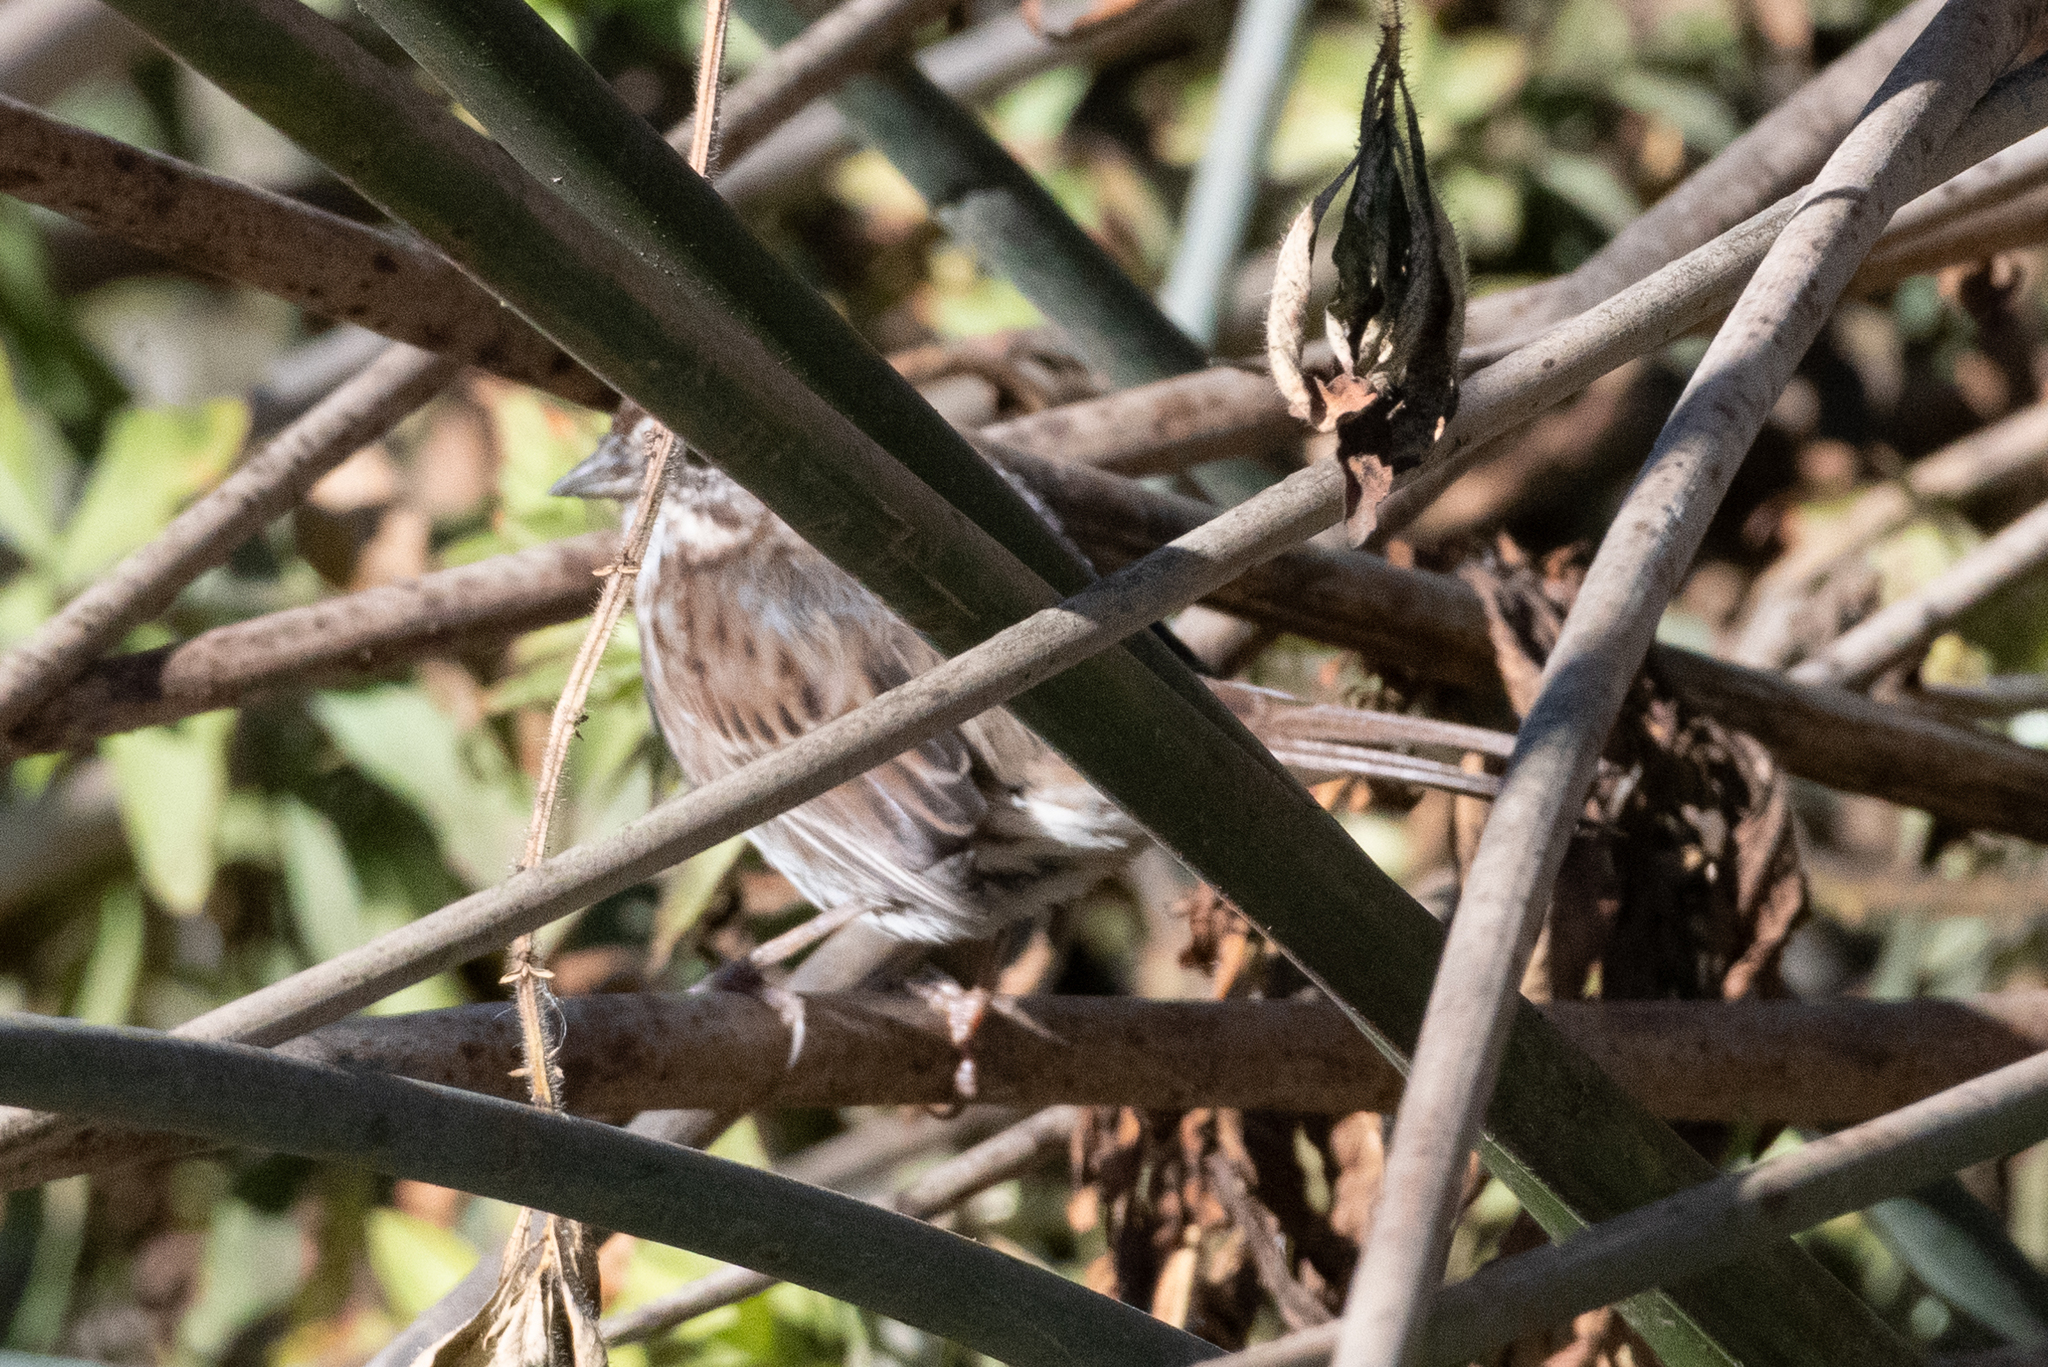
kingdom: Animalia
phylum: Chordata
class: Aves
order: Passeriformes
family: Passerellidae
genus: Melospiza
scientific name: Melospiza melodia
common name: Song sparrow
